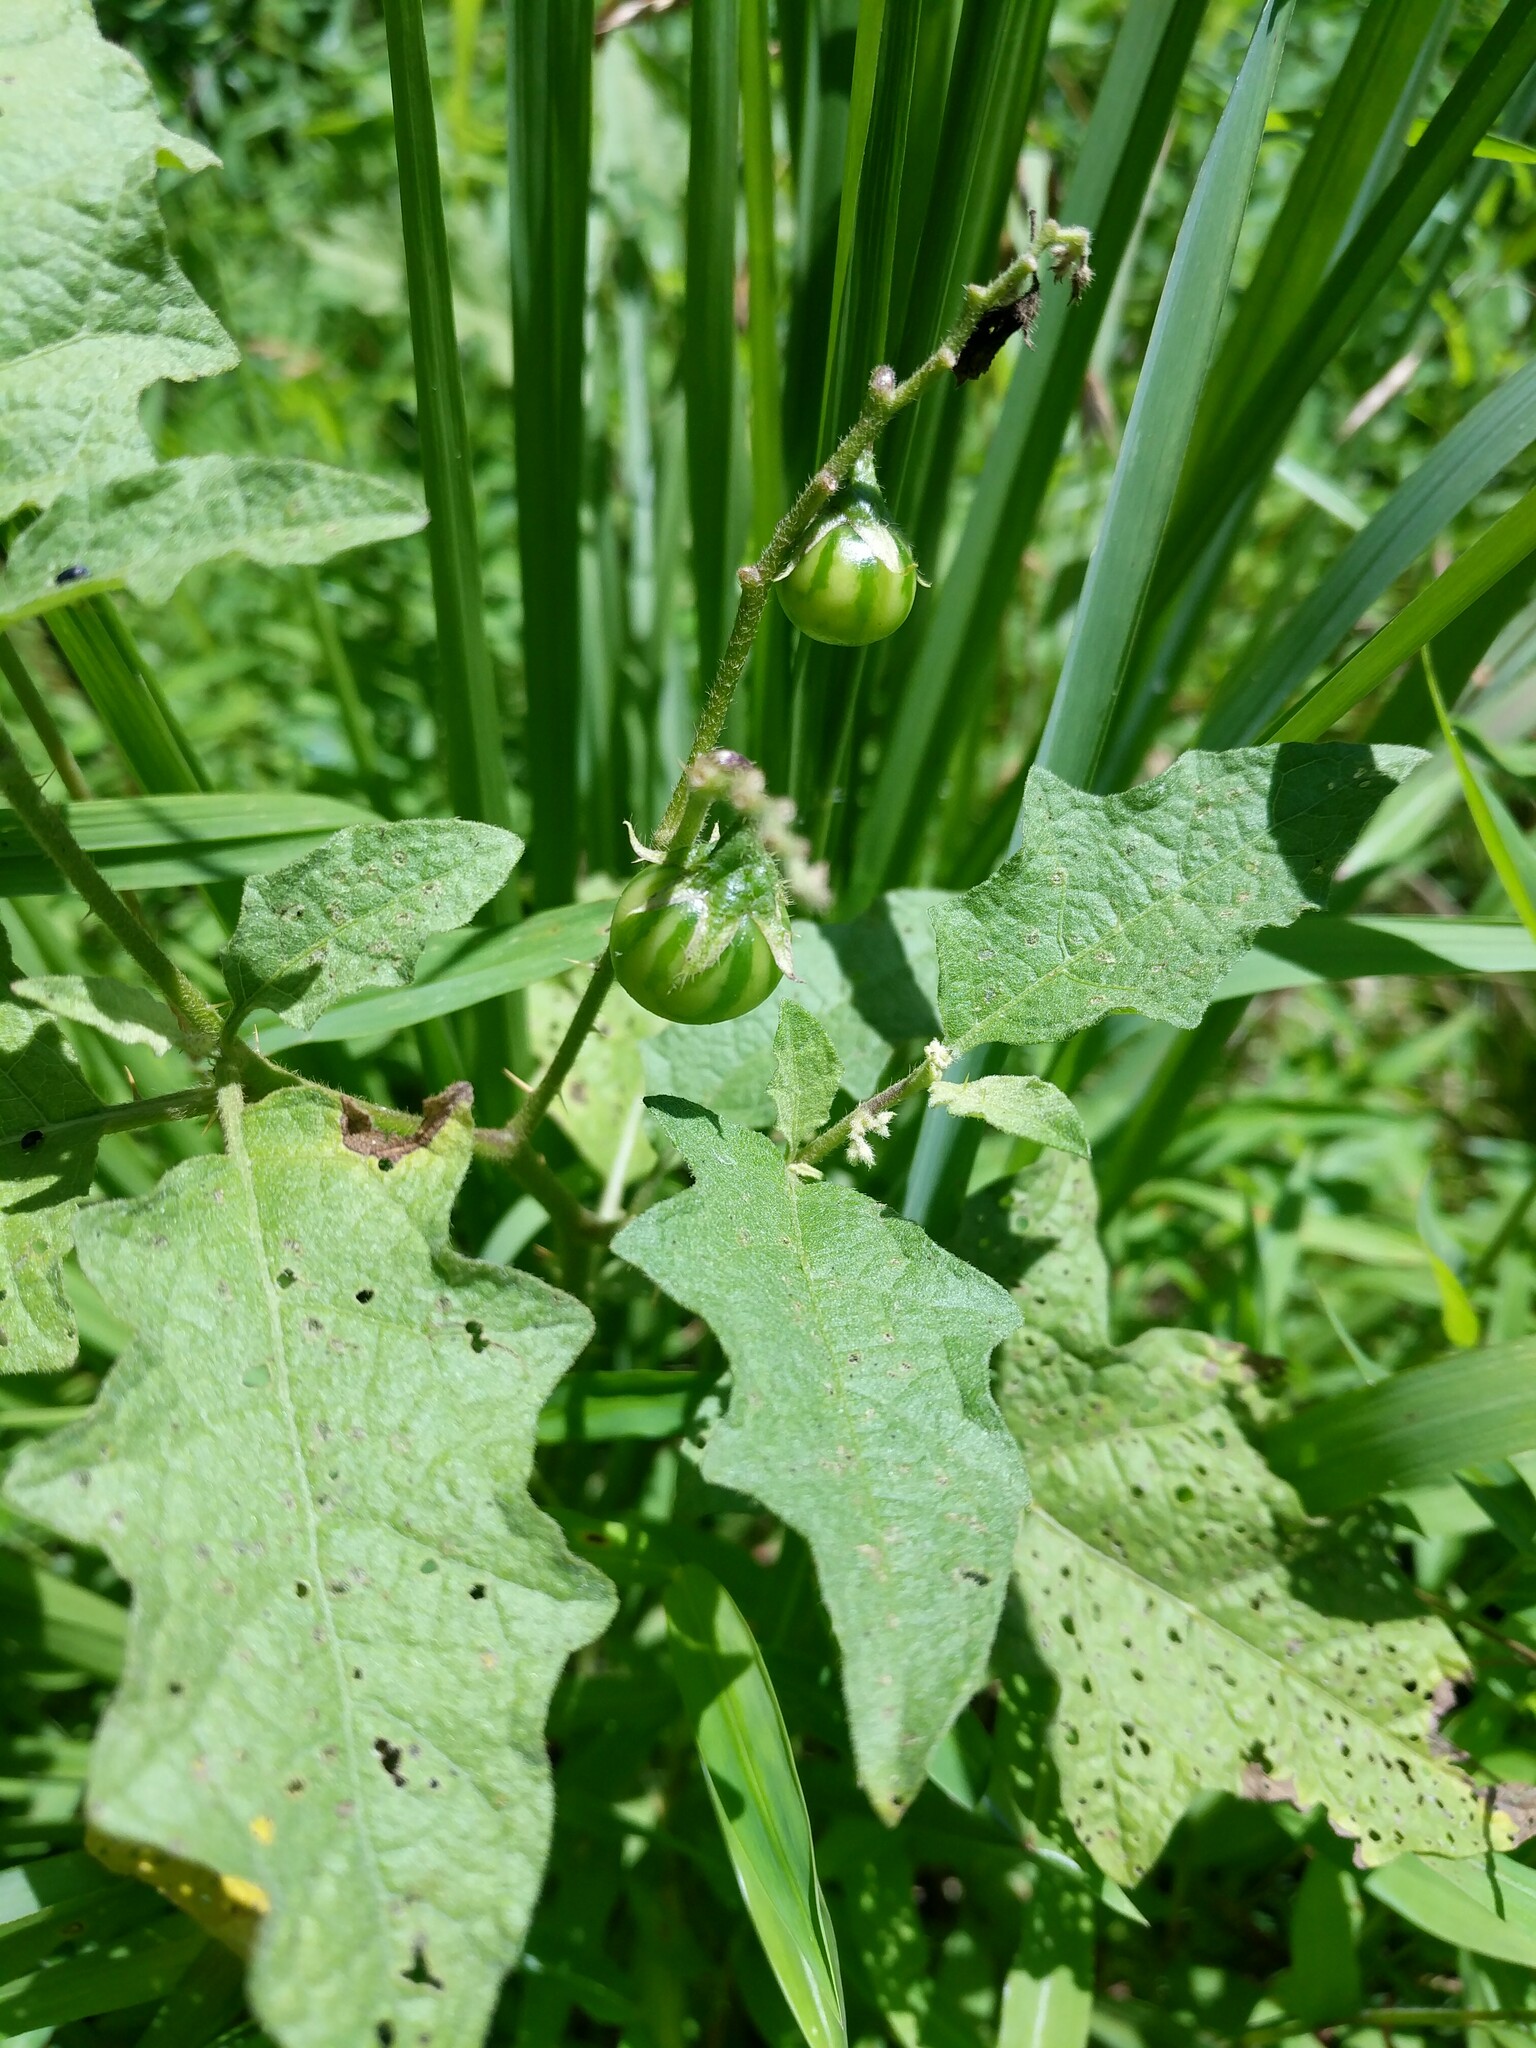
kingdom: Plantae
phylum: Tracheophyta
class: Magnoliopsida
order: Solanales
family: Solanaceae
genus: Solanum
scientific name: Solanum carolinense
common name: Horse-nettle
